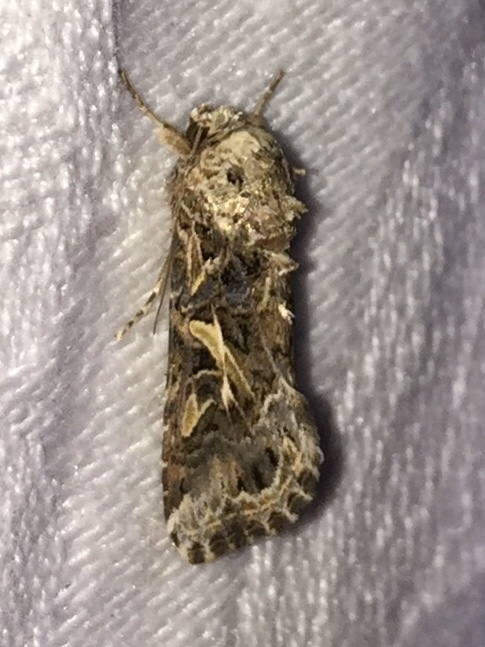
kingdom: Animalia
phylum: Arthropoda
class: Insecta
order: Lepidoptera
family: Noctuidae
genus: Spodoptera
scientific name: Spodoptera ornithogalli
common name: Yellow-striped armyworm
